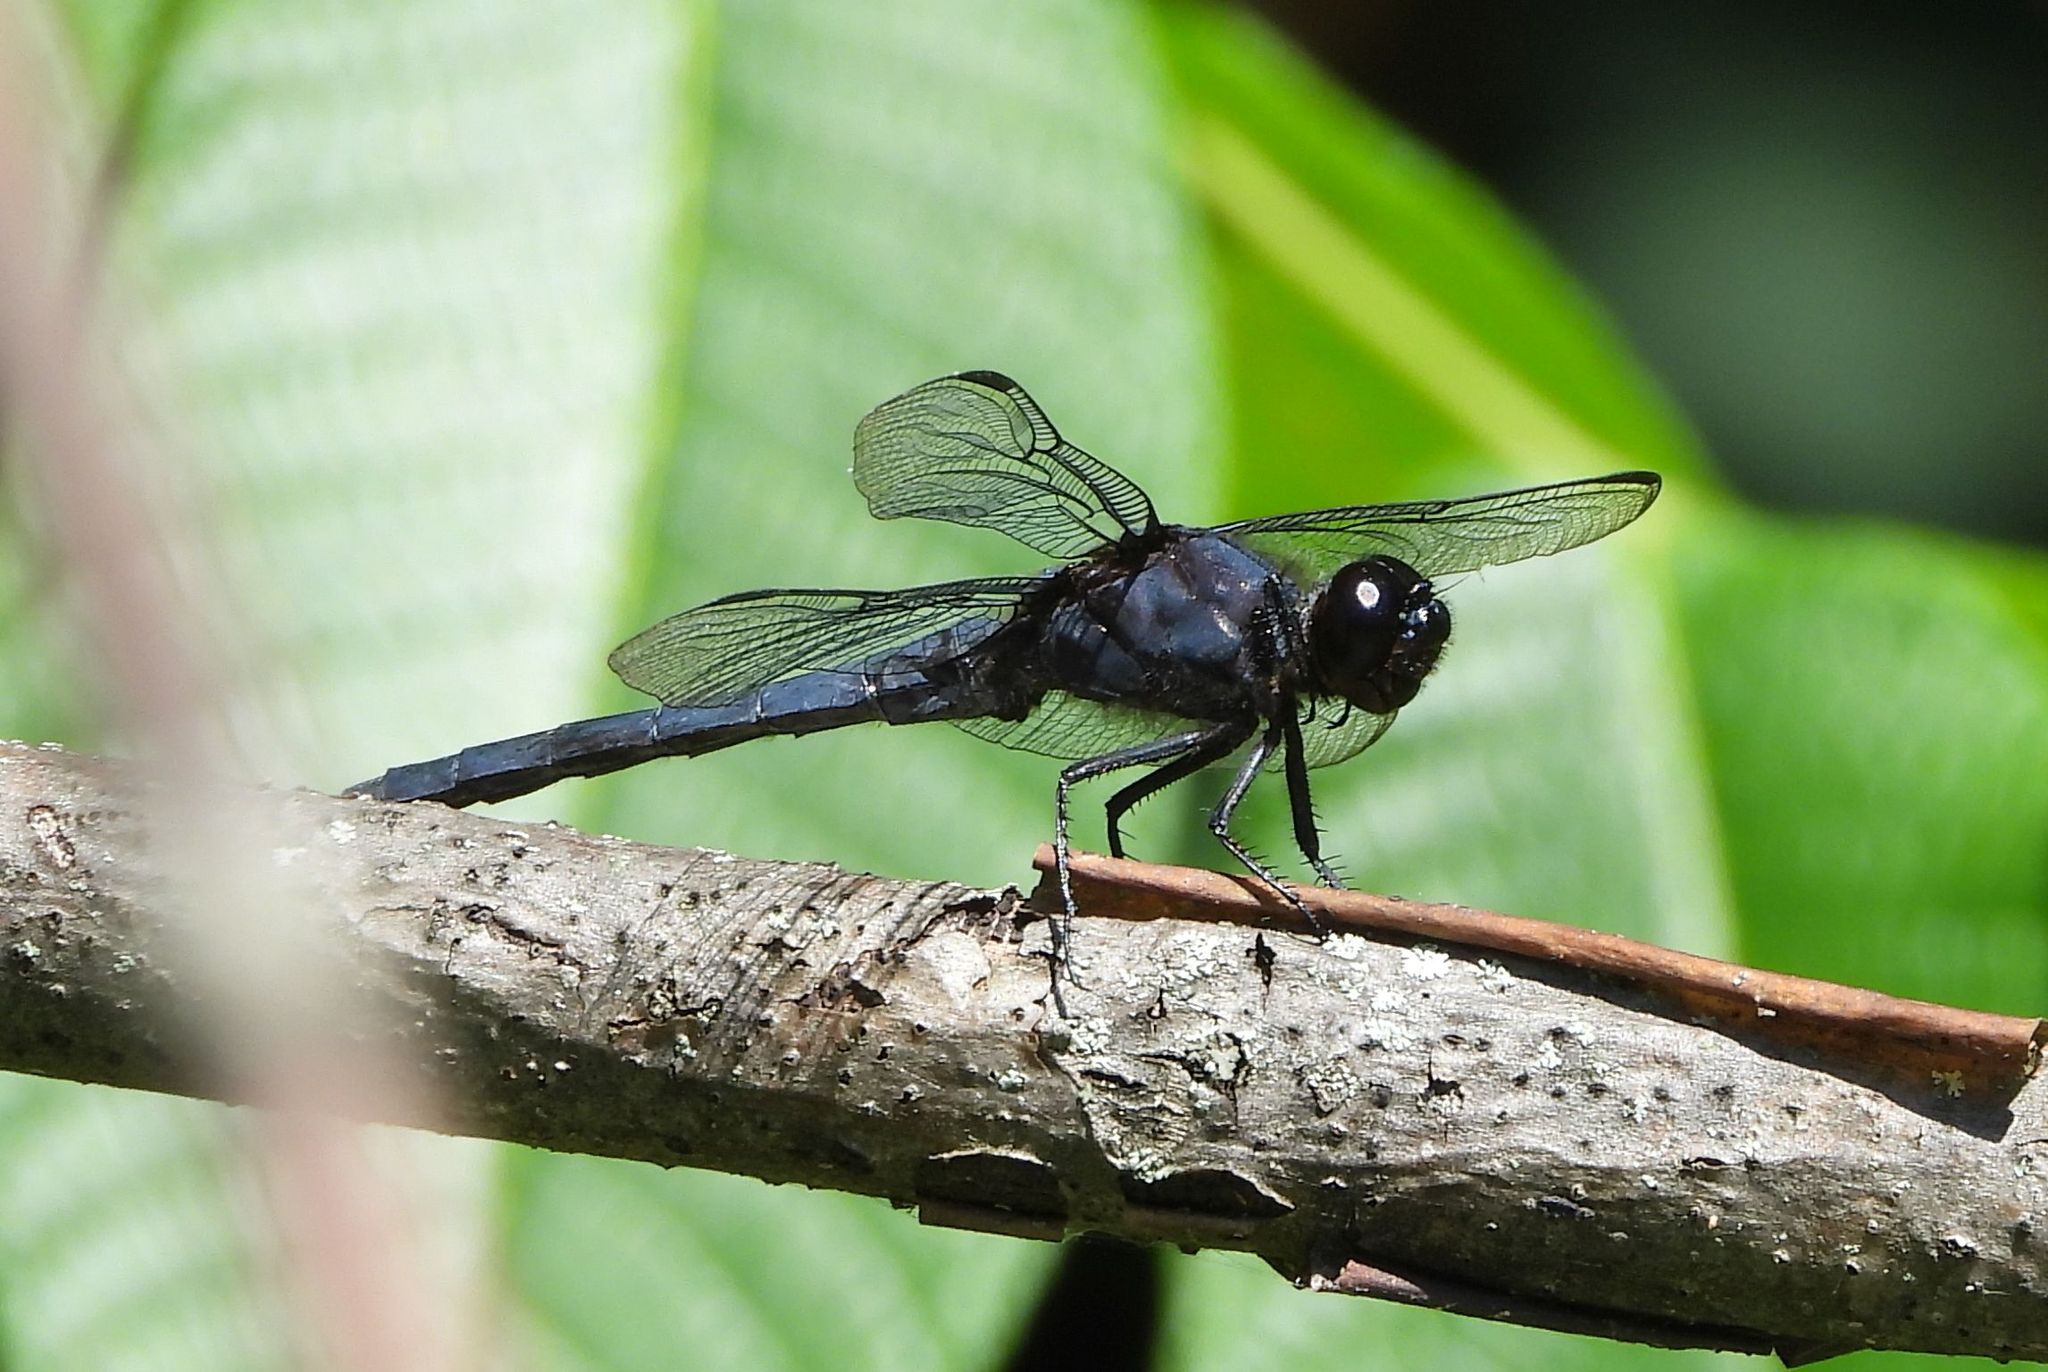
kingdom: Animalia
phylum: Arthropoda
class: Insecta
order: Odonata
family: Libellulidae
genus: Libellula
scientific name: Libellula incesta
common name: Slaty skimmer
